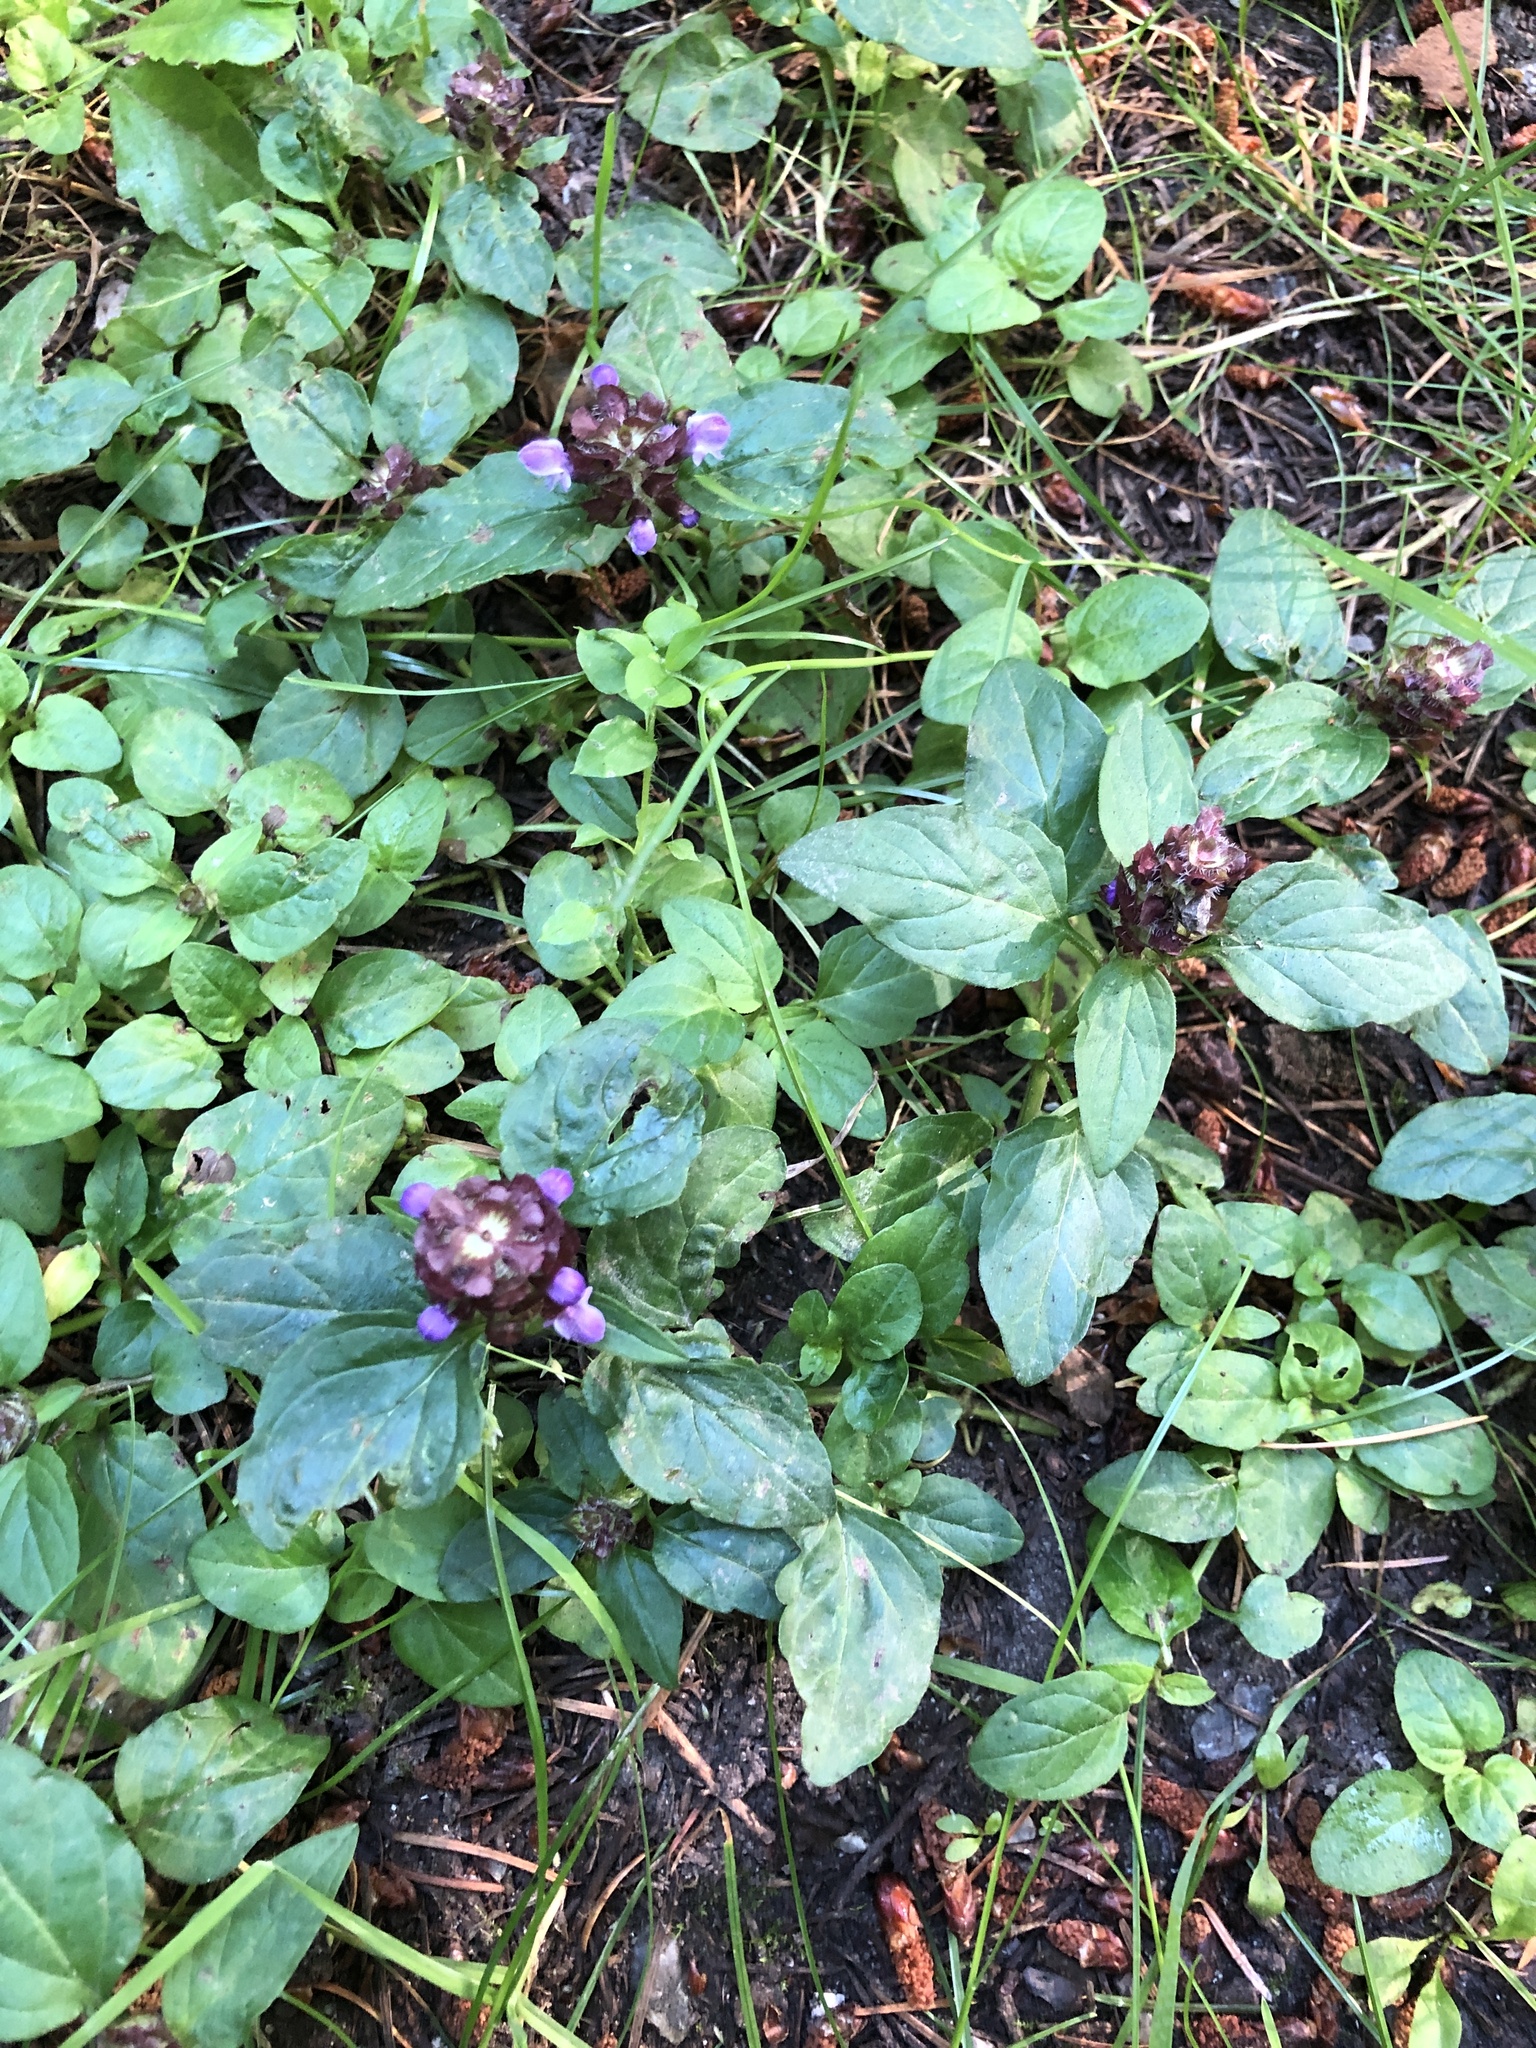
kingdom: Plantae
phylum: Tracheophyta
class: Magnoliopsida
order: Lamiales
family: Lamiaceae
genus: Prunella
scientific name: Prunella vulgaris
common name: Heal-all
